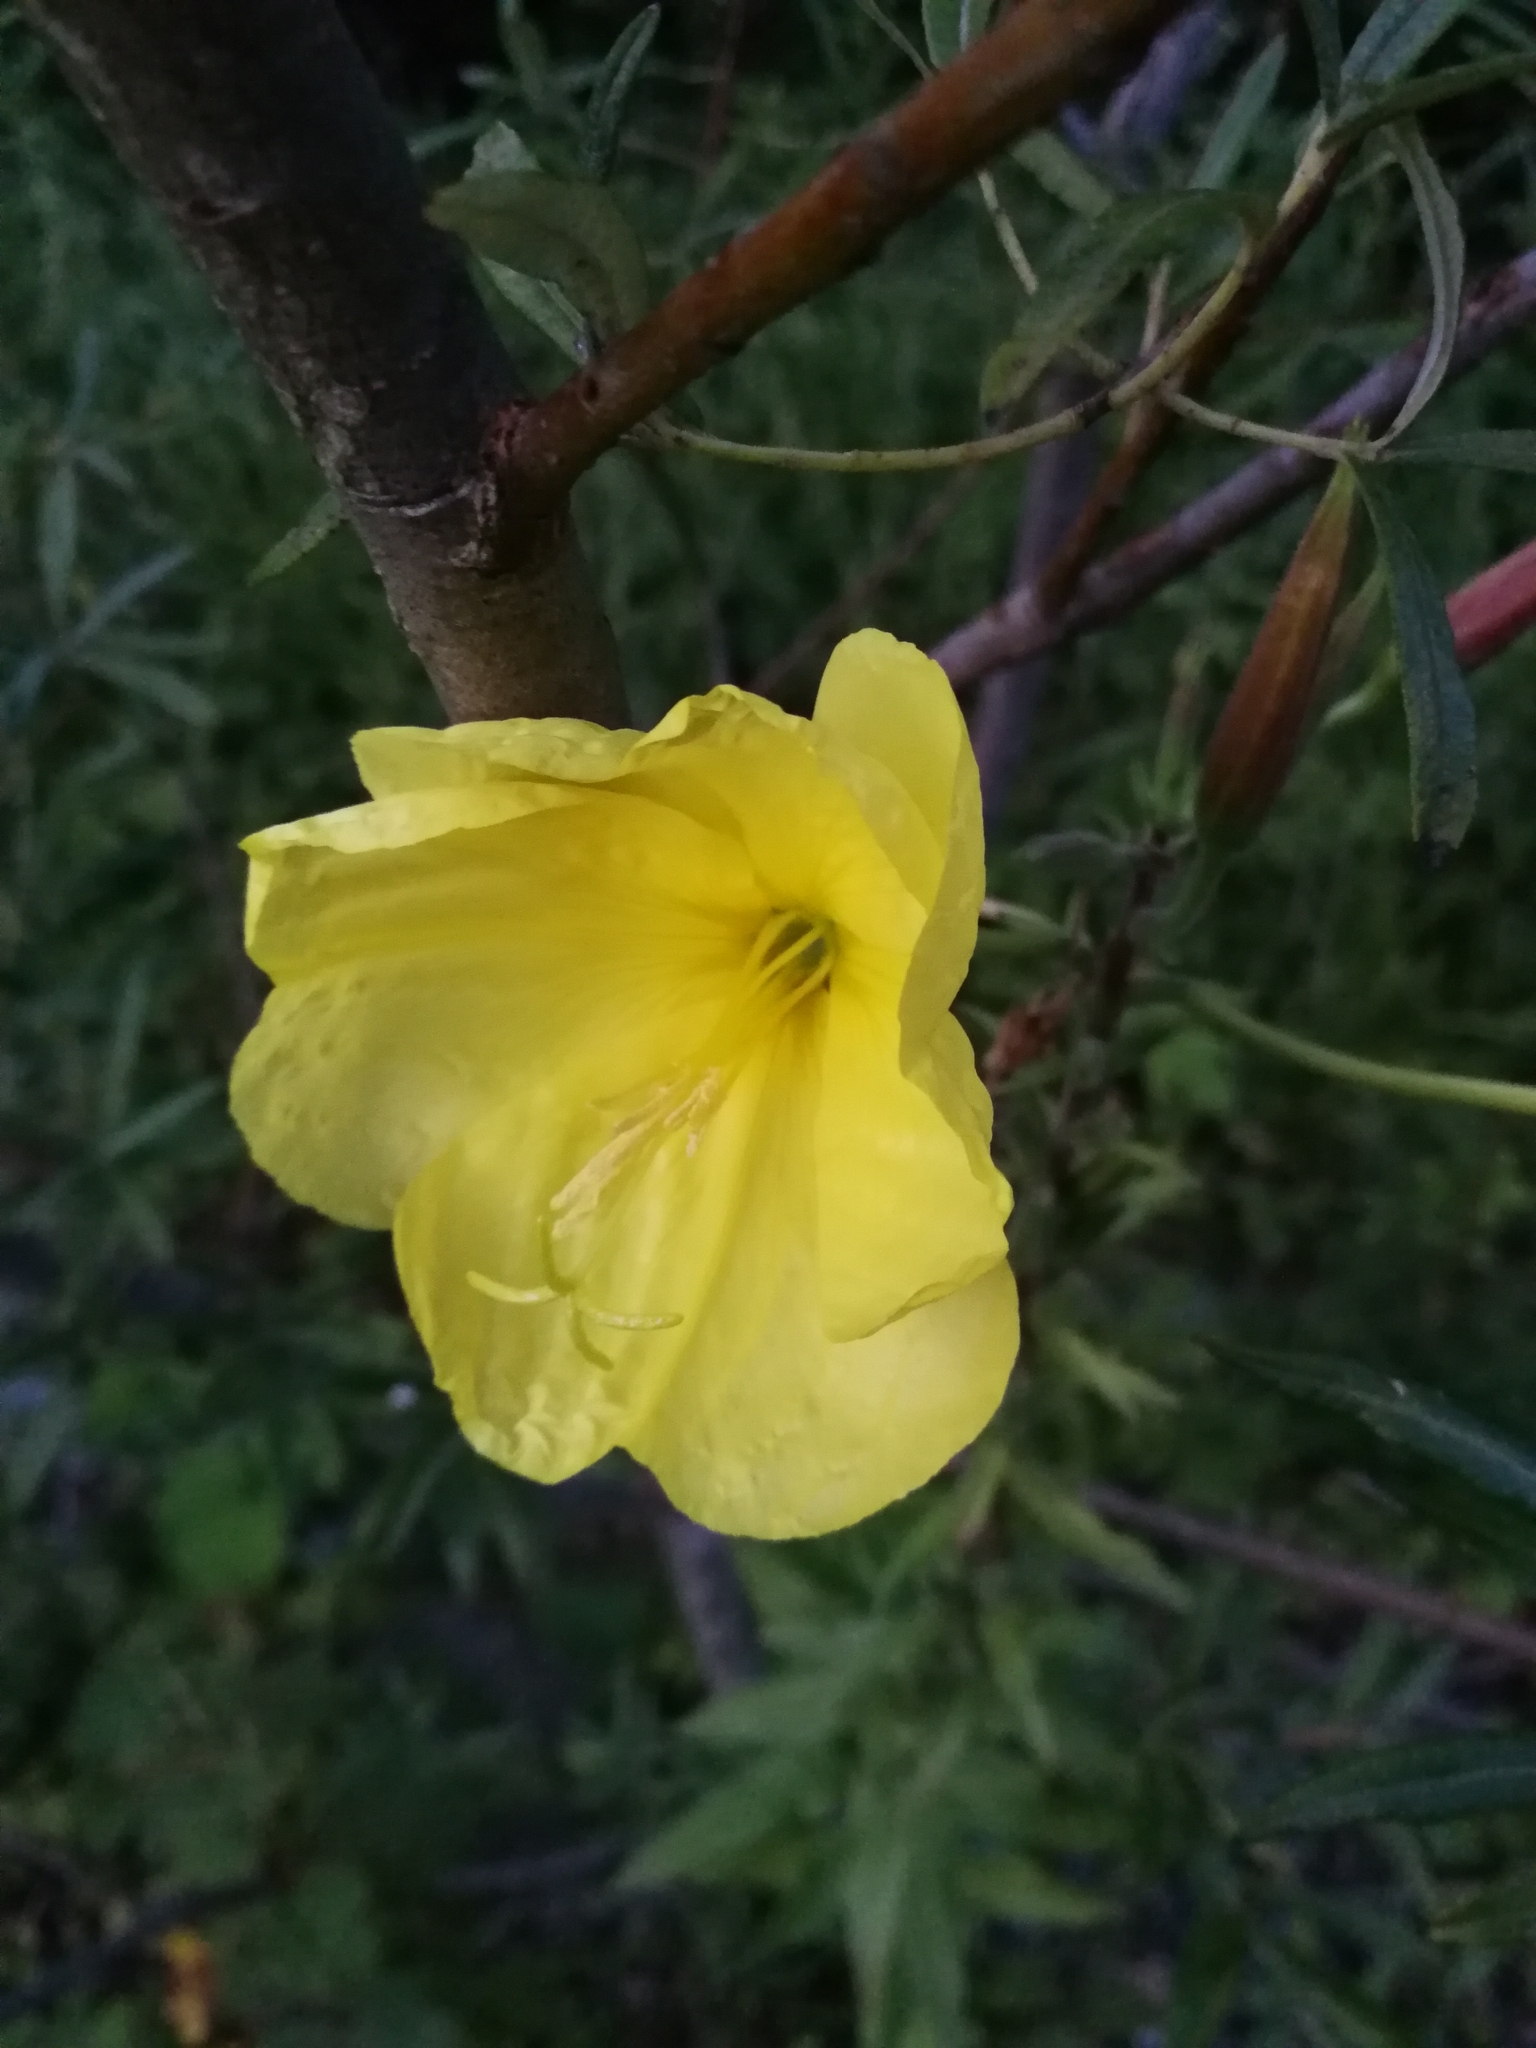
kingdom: Plantae
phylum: Tracheophyta
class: Magnoliopsida
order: Myrtales
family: Onagraceae
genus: Oenothera
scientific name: Oenothera glazioviana
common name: Large-flowered evening-primrose
